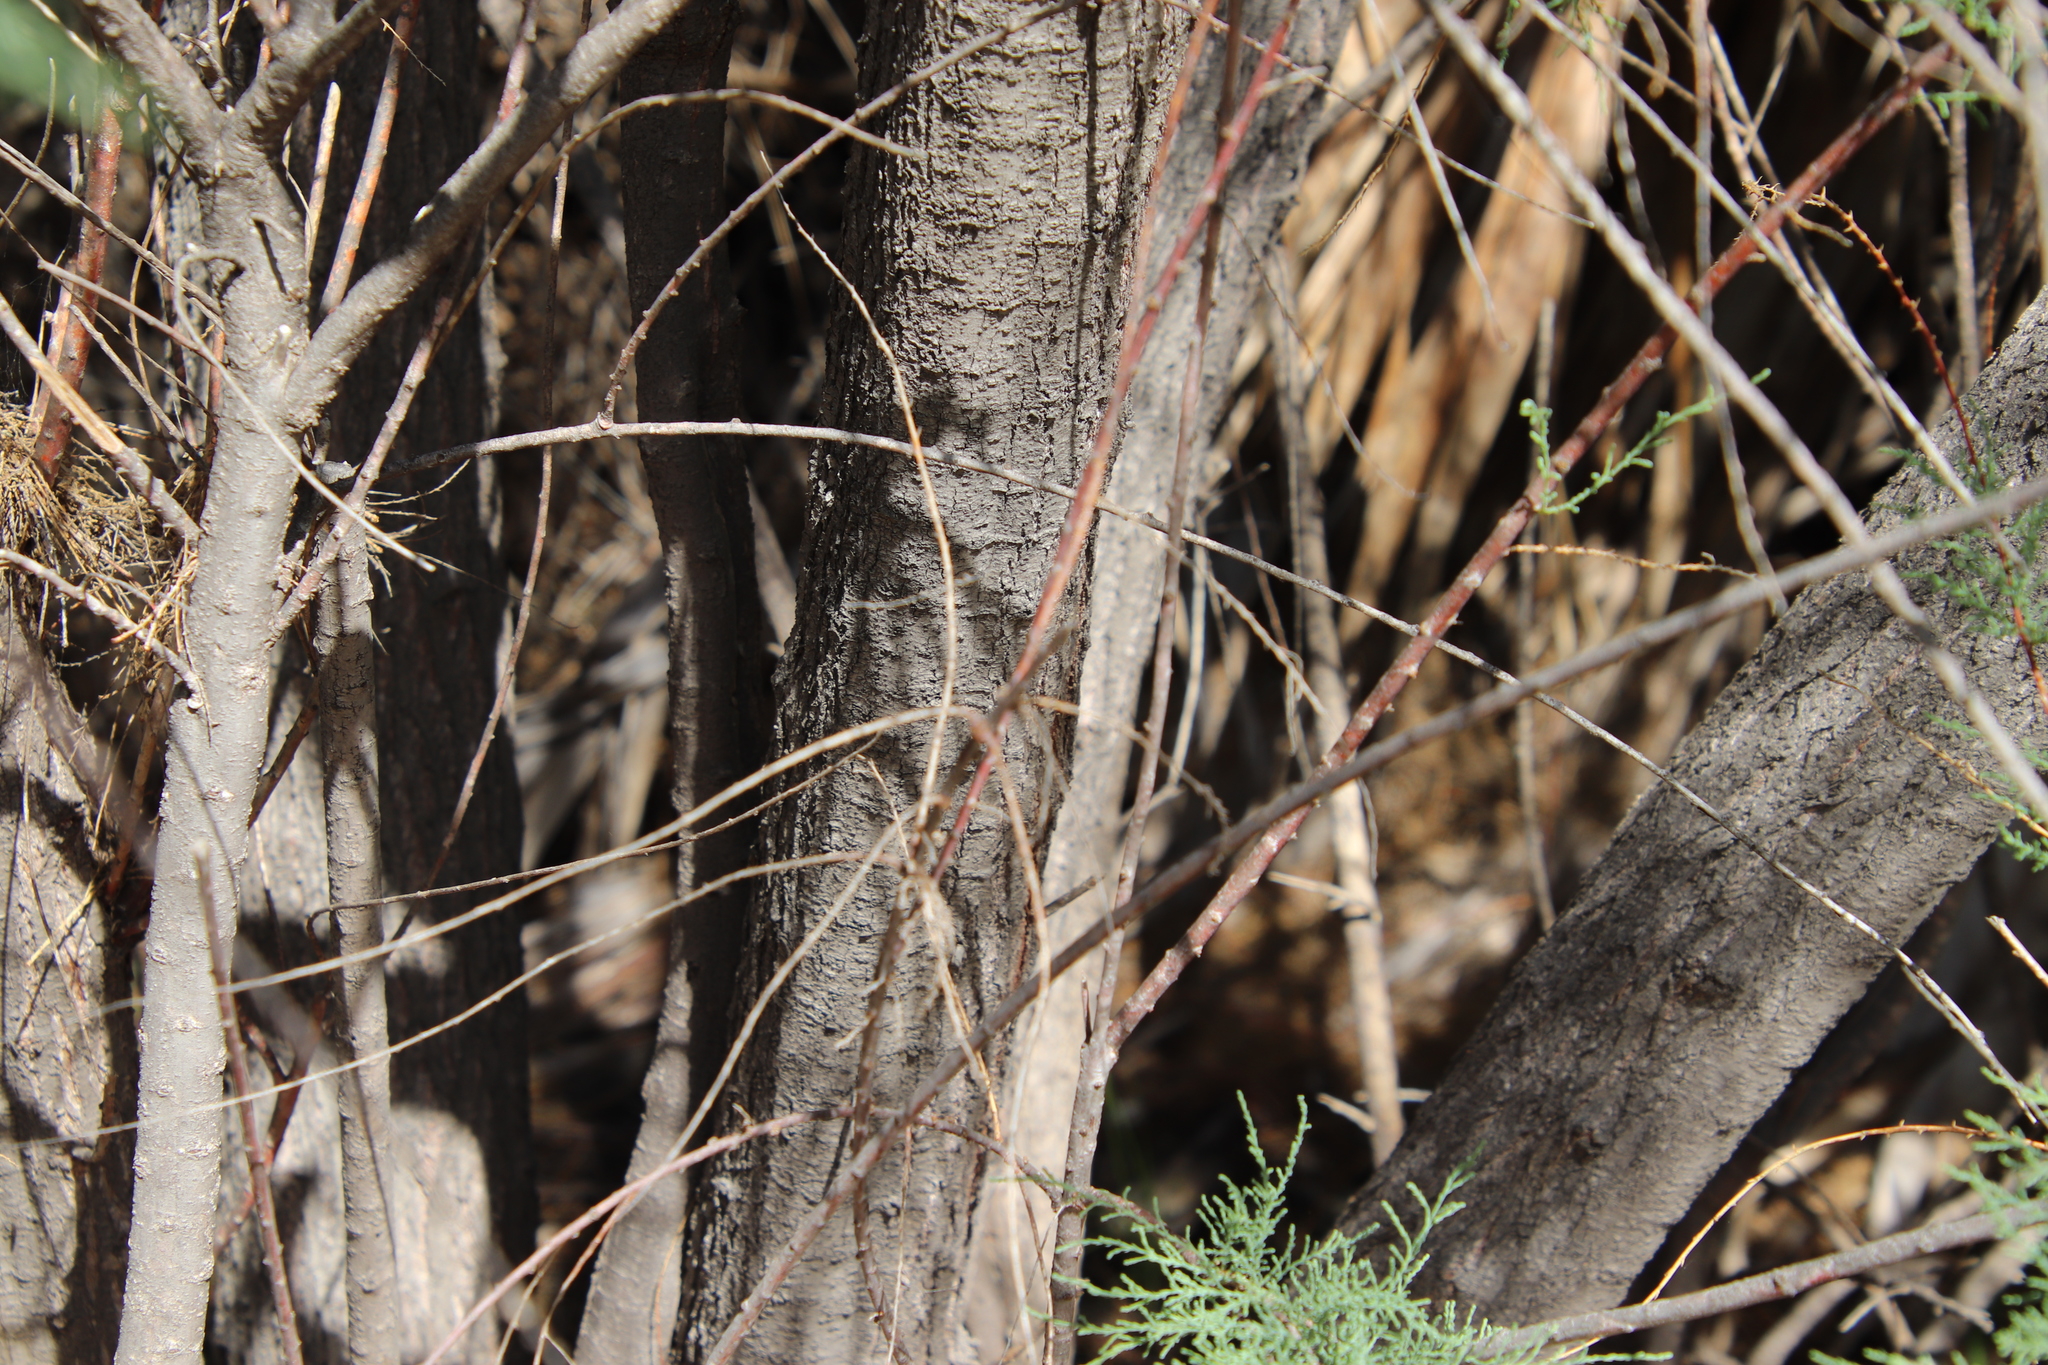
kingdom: Plantae
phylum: Tracheophyta
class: Magnoliopsida
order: Caryophyllales
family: Tamaricaceae
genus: Tamarix
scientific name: Tamarix
